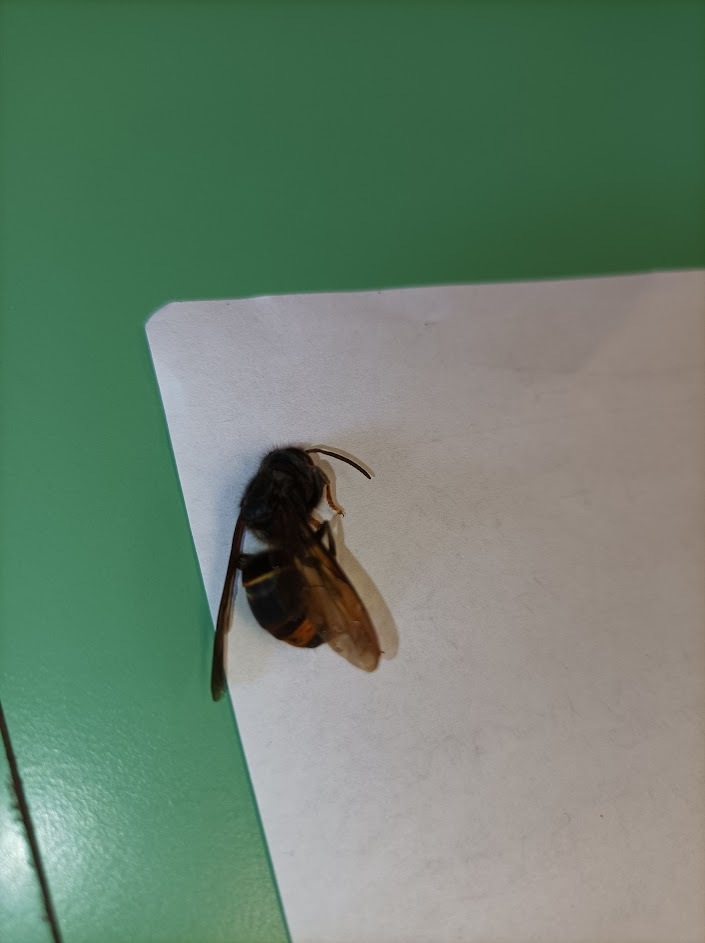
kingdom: Animalia
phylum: Arthropoda
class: Insecta
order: Hymenoptera
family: Vespidae
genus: Vespa
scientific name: Vespa velutina
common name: Asian hornet
